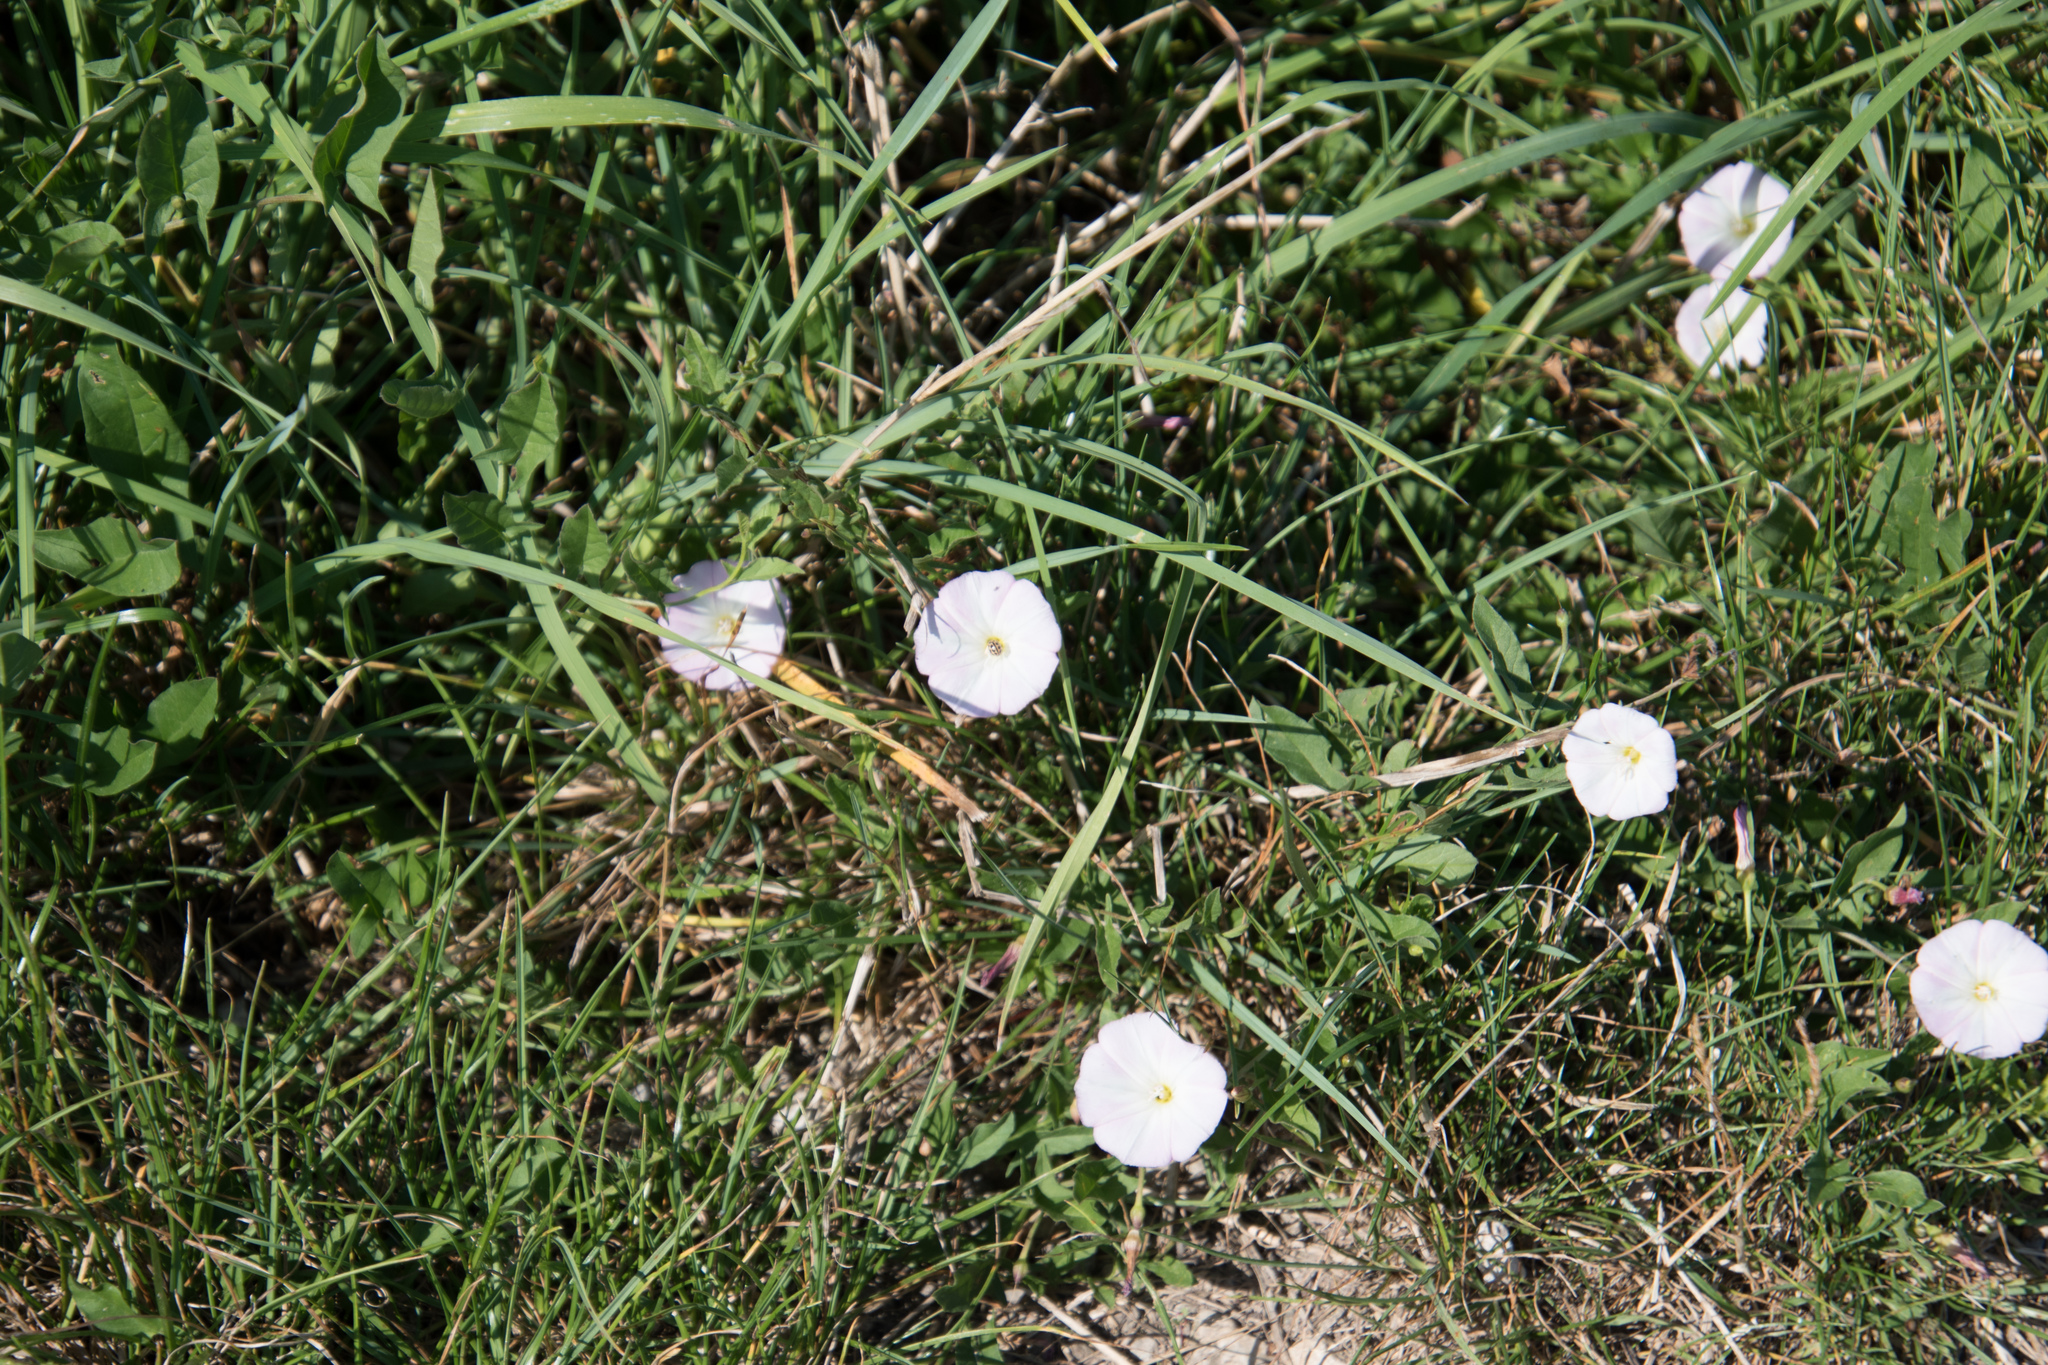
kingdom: Plantae
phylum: Tracheophyta
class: Magnoliopsida
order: Solanales
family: Convolvulaceae
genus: Convolvulus
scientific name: Convolvulus arvensis
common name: Field bindweed
